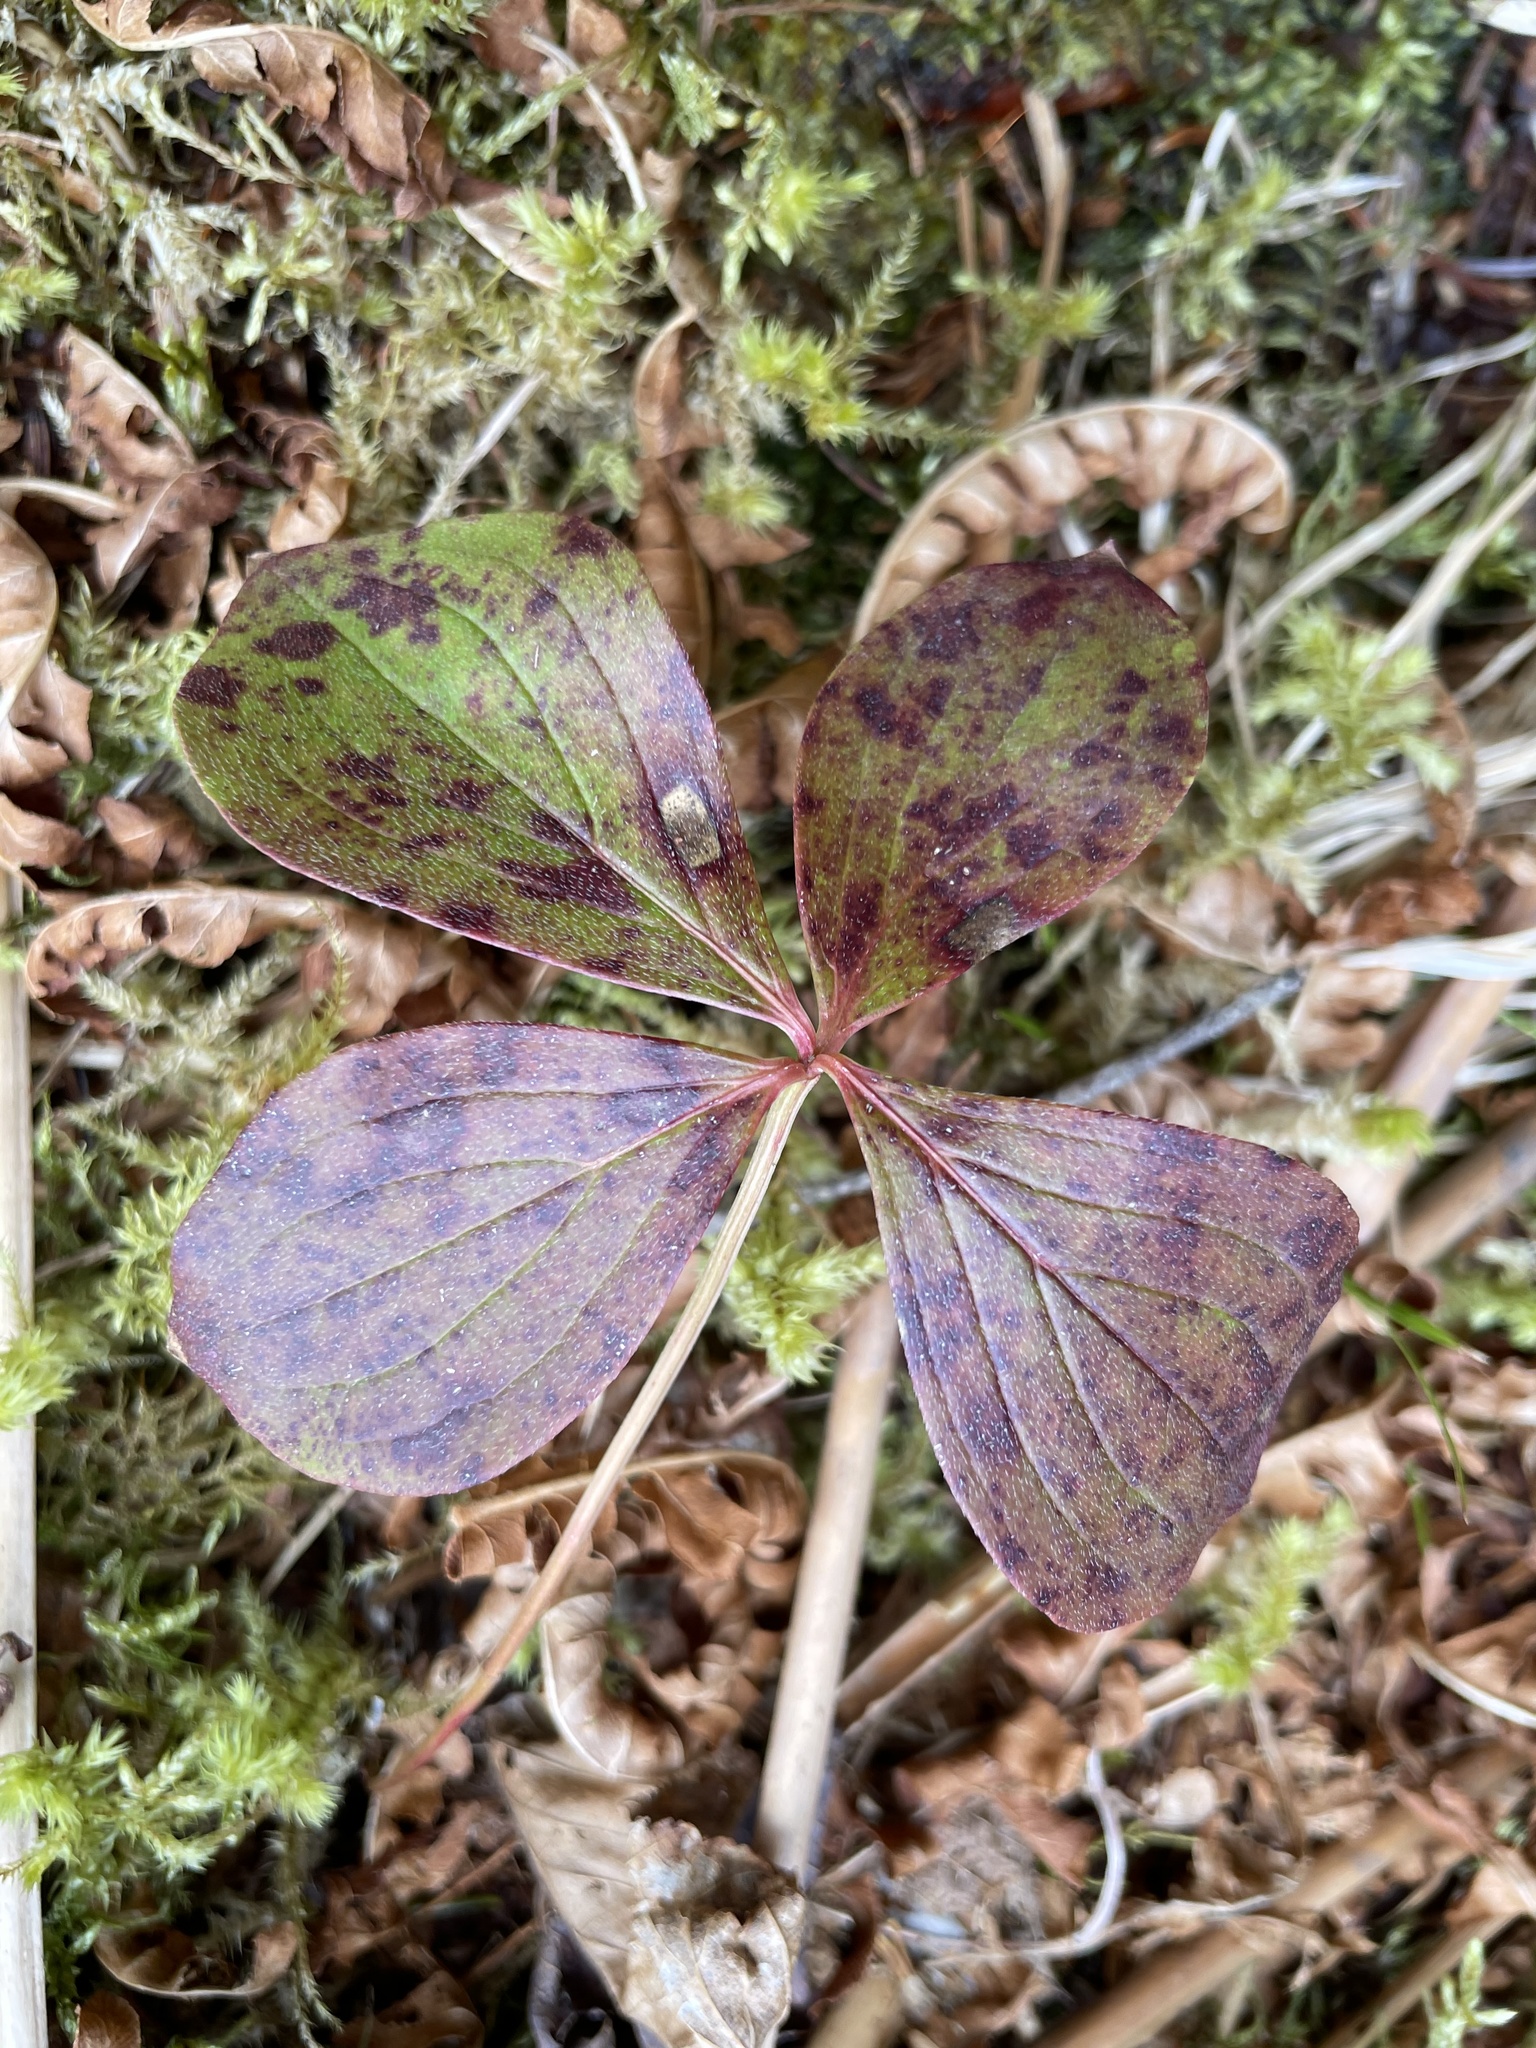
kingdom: Plantae
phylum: Tracheophyta
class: Magnoliopsida
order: Cornales
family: Cornaceae
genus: Cornus
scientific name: Cornus canadensis
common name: Creeping dogwood
